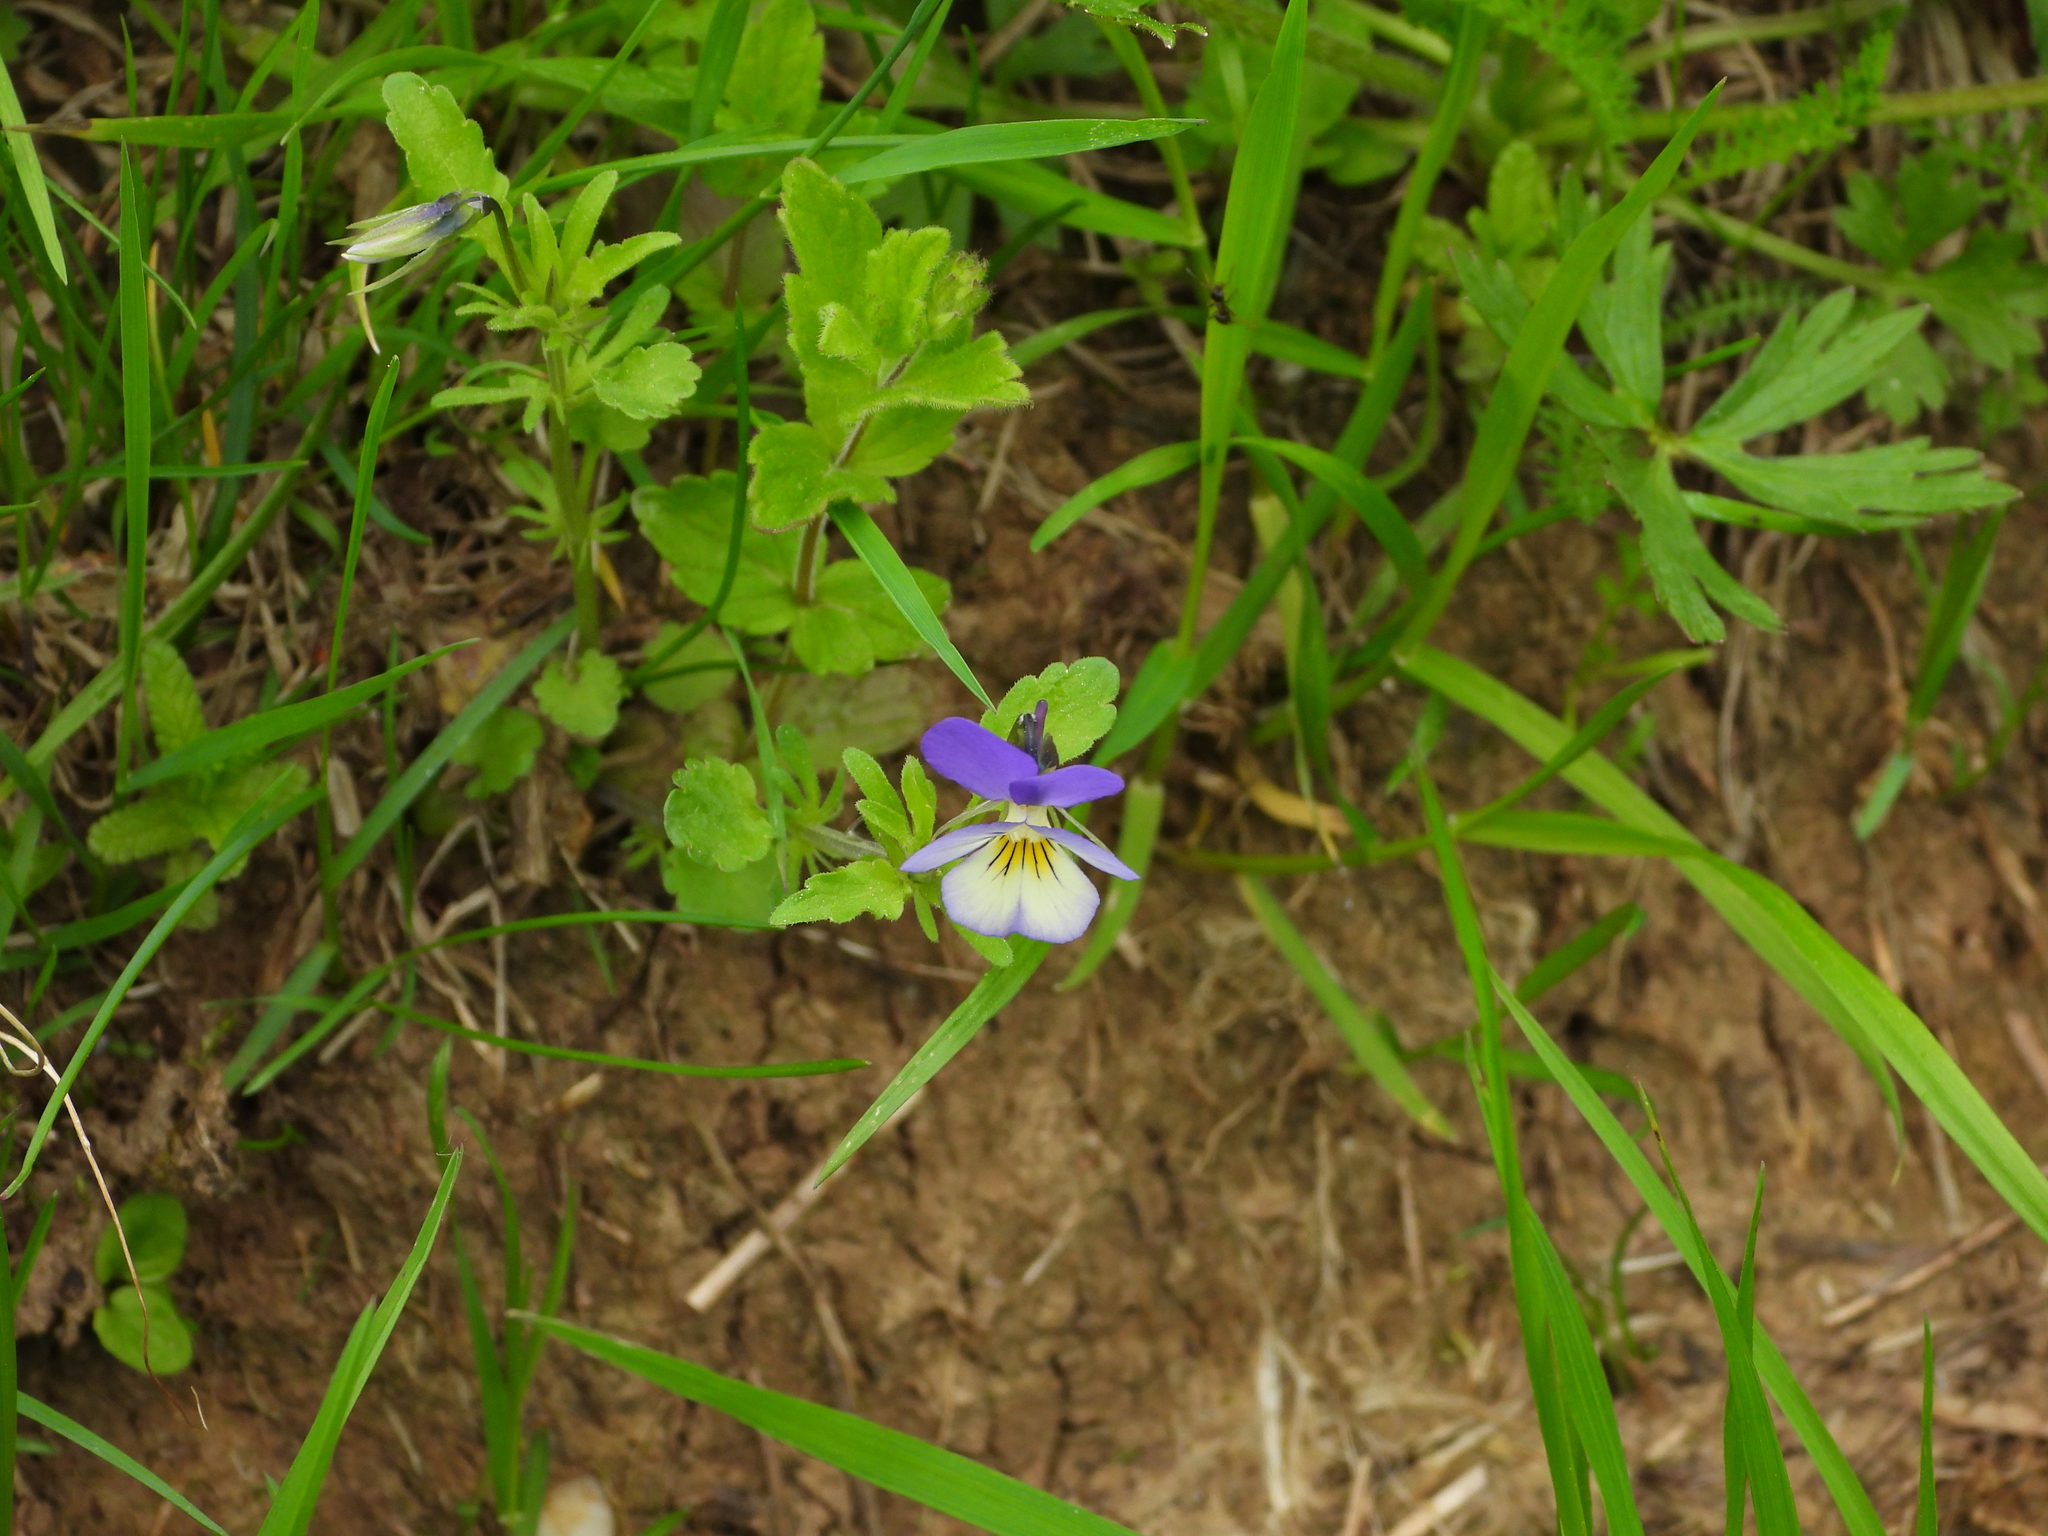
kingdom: Plantae
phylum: Tracheophyta
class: Magnoliopsida
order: Malpighiales
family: Violaceae
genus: Viola
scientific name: Viola tricolor
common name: Pansy
